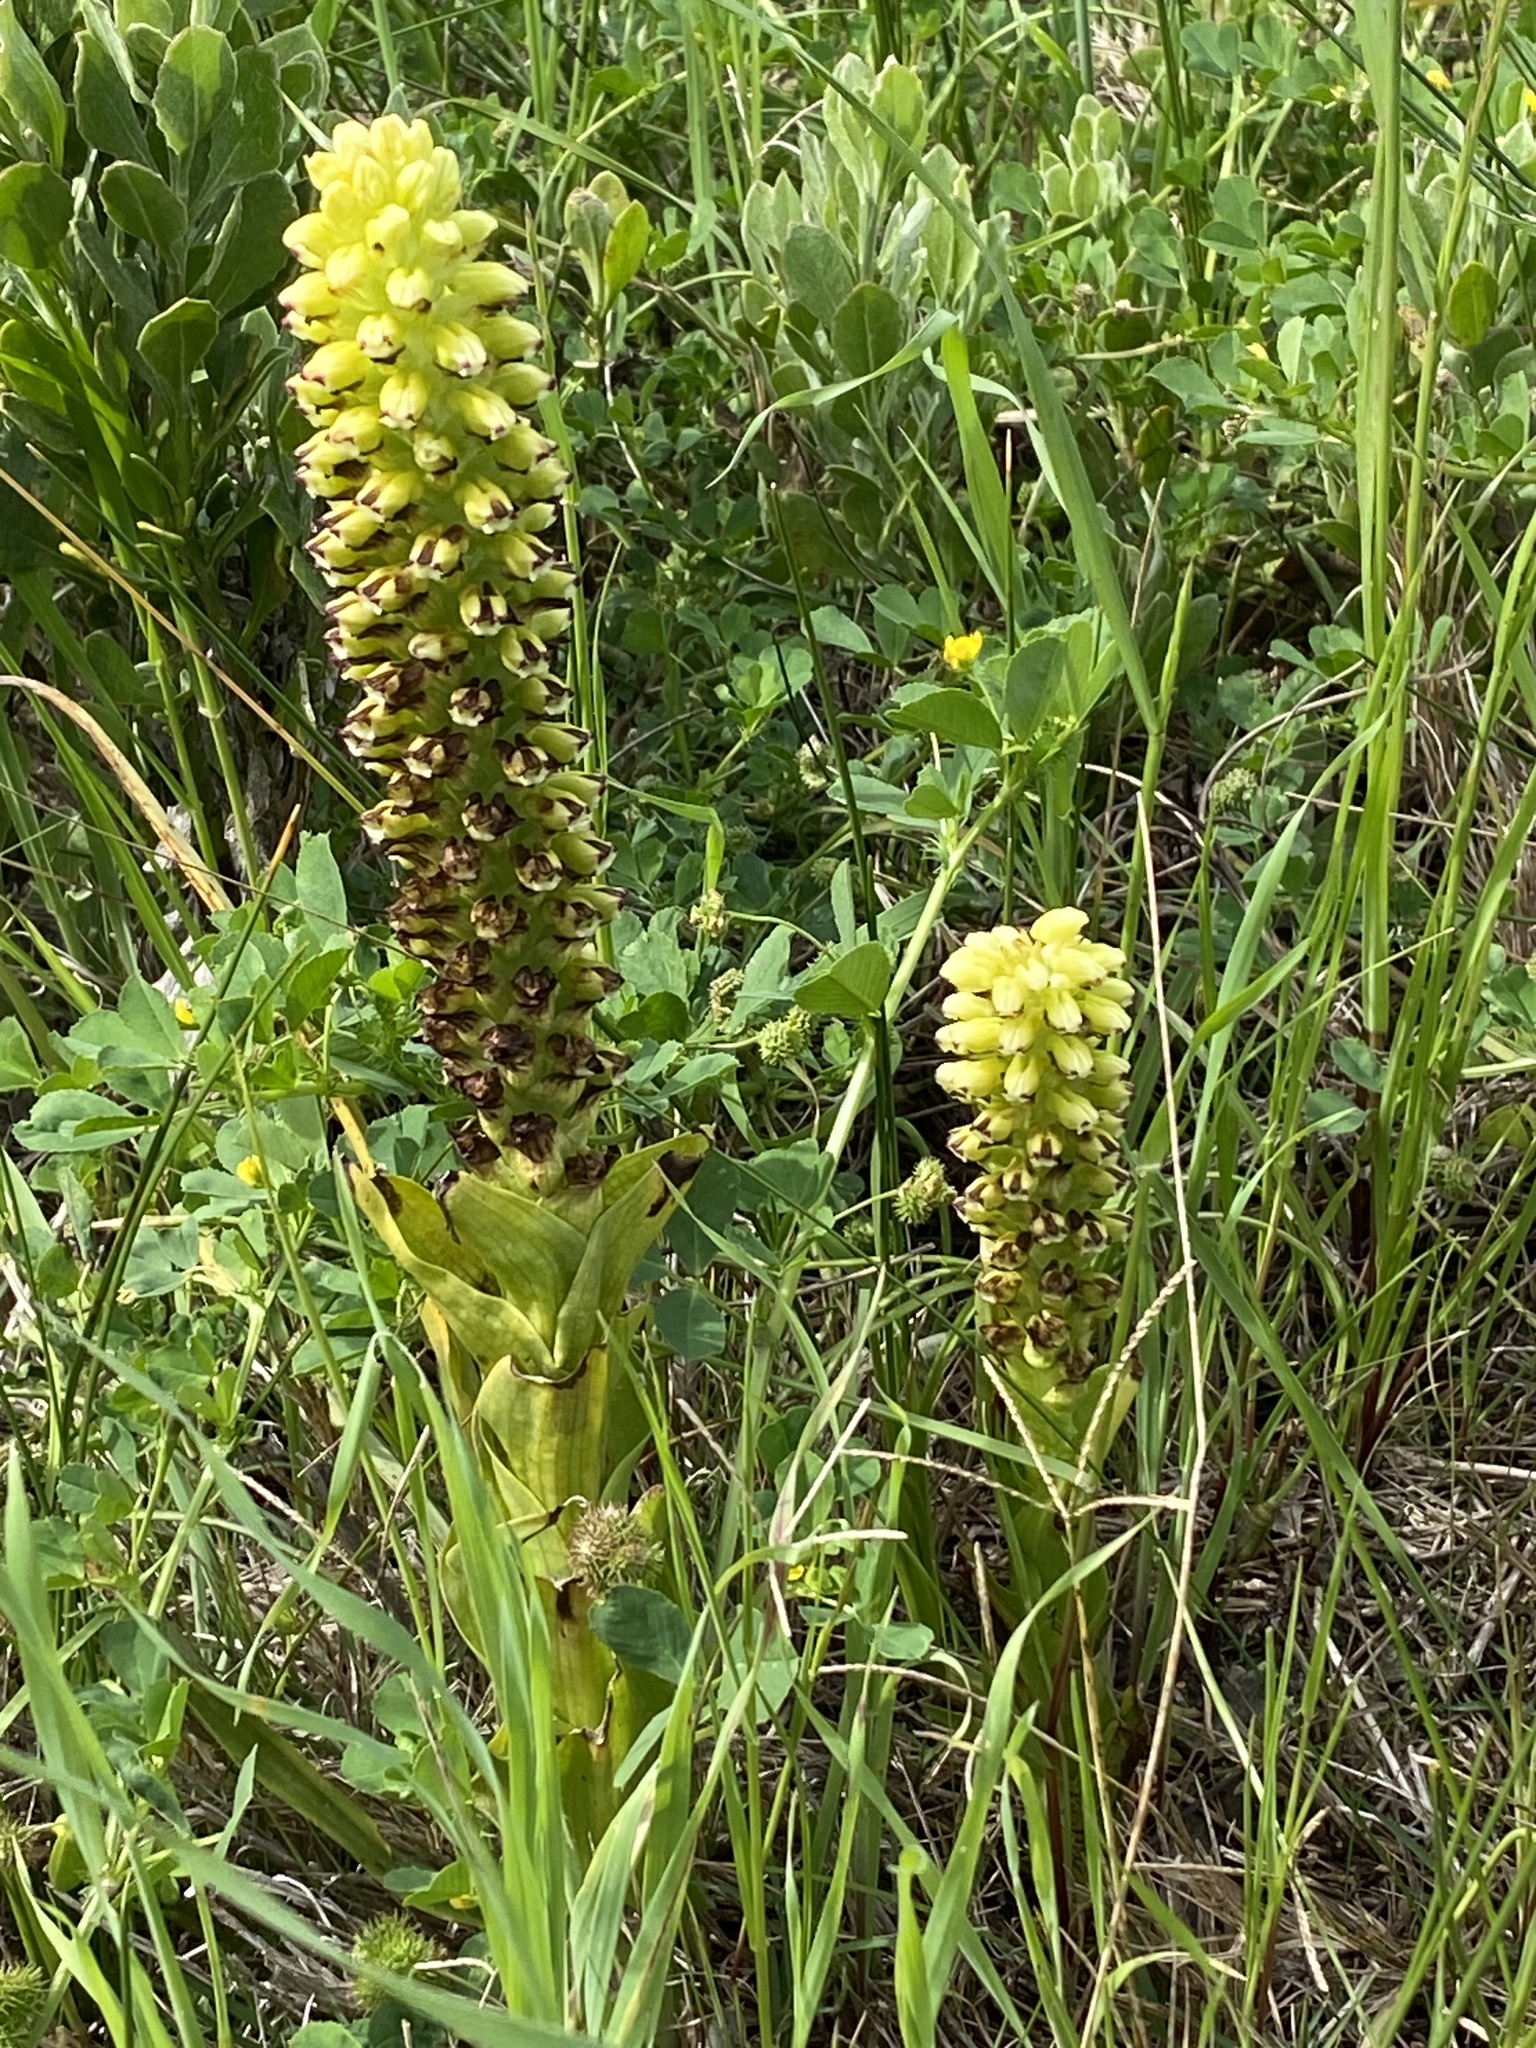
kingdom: Plantae
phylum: Tracheophyta
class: Liliopsida
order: Asparagales
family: Orchidaceae
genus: Corycium
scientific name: Corycium orobanchoides
